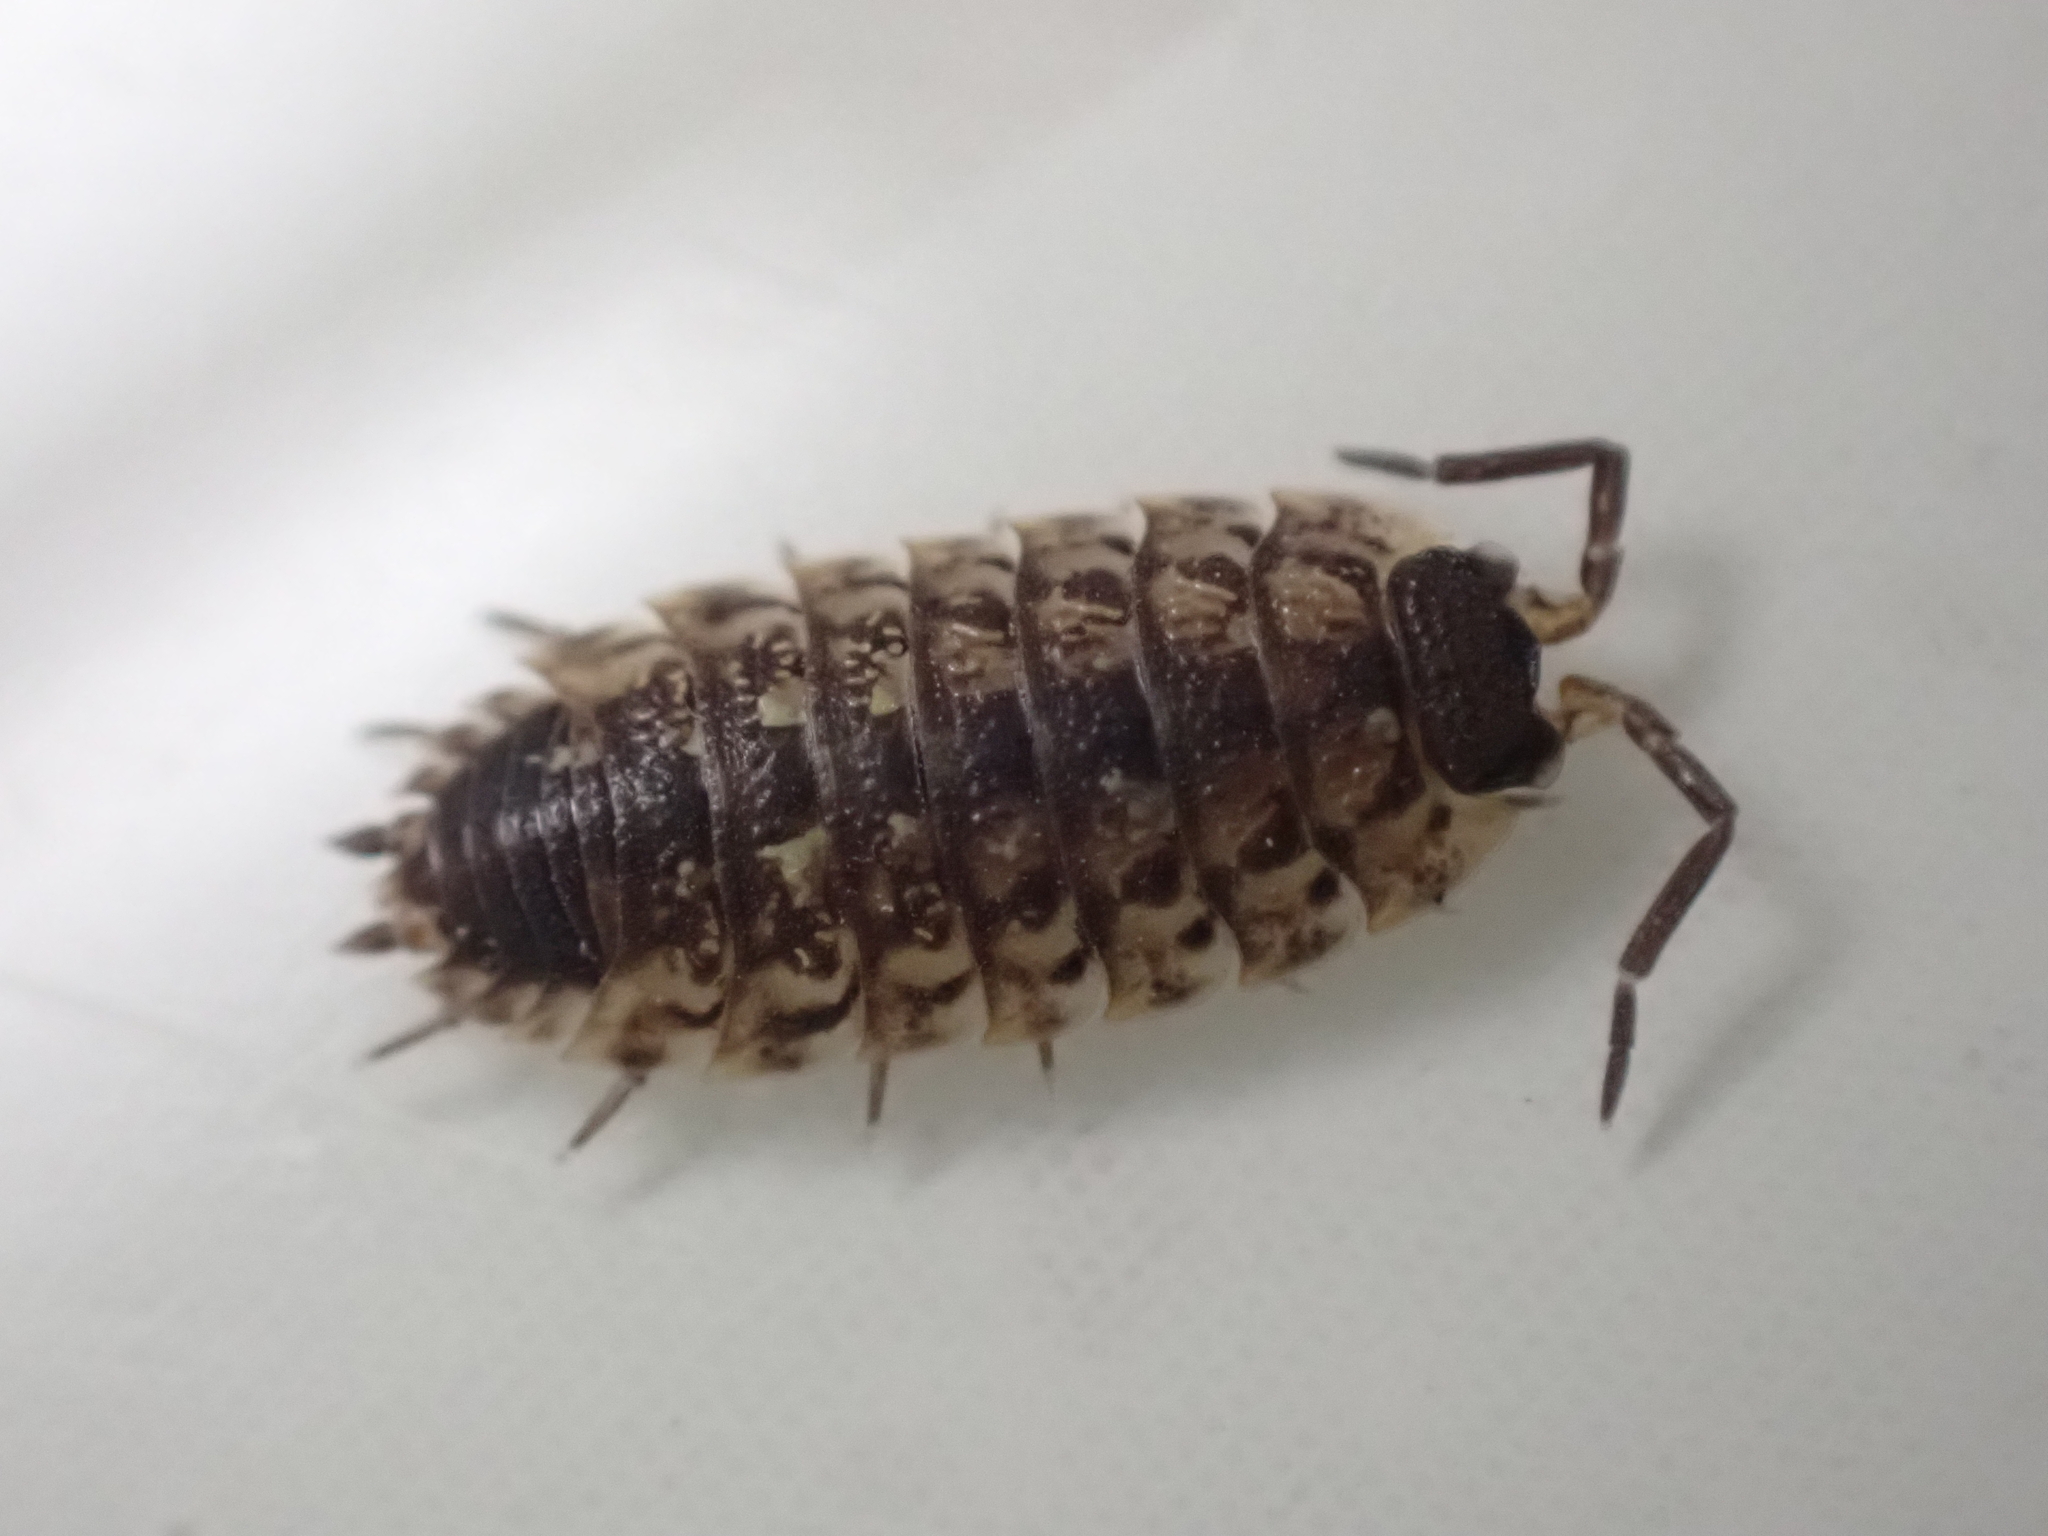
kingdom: Animalia
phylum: Arthropoda
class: Malacostraca
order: Isopoda
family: Porcellionidae
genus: Porcellio
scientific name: Porcellio spinicornis
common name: Painted woodlouse
